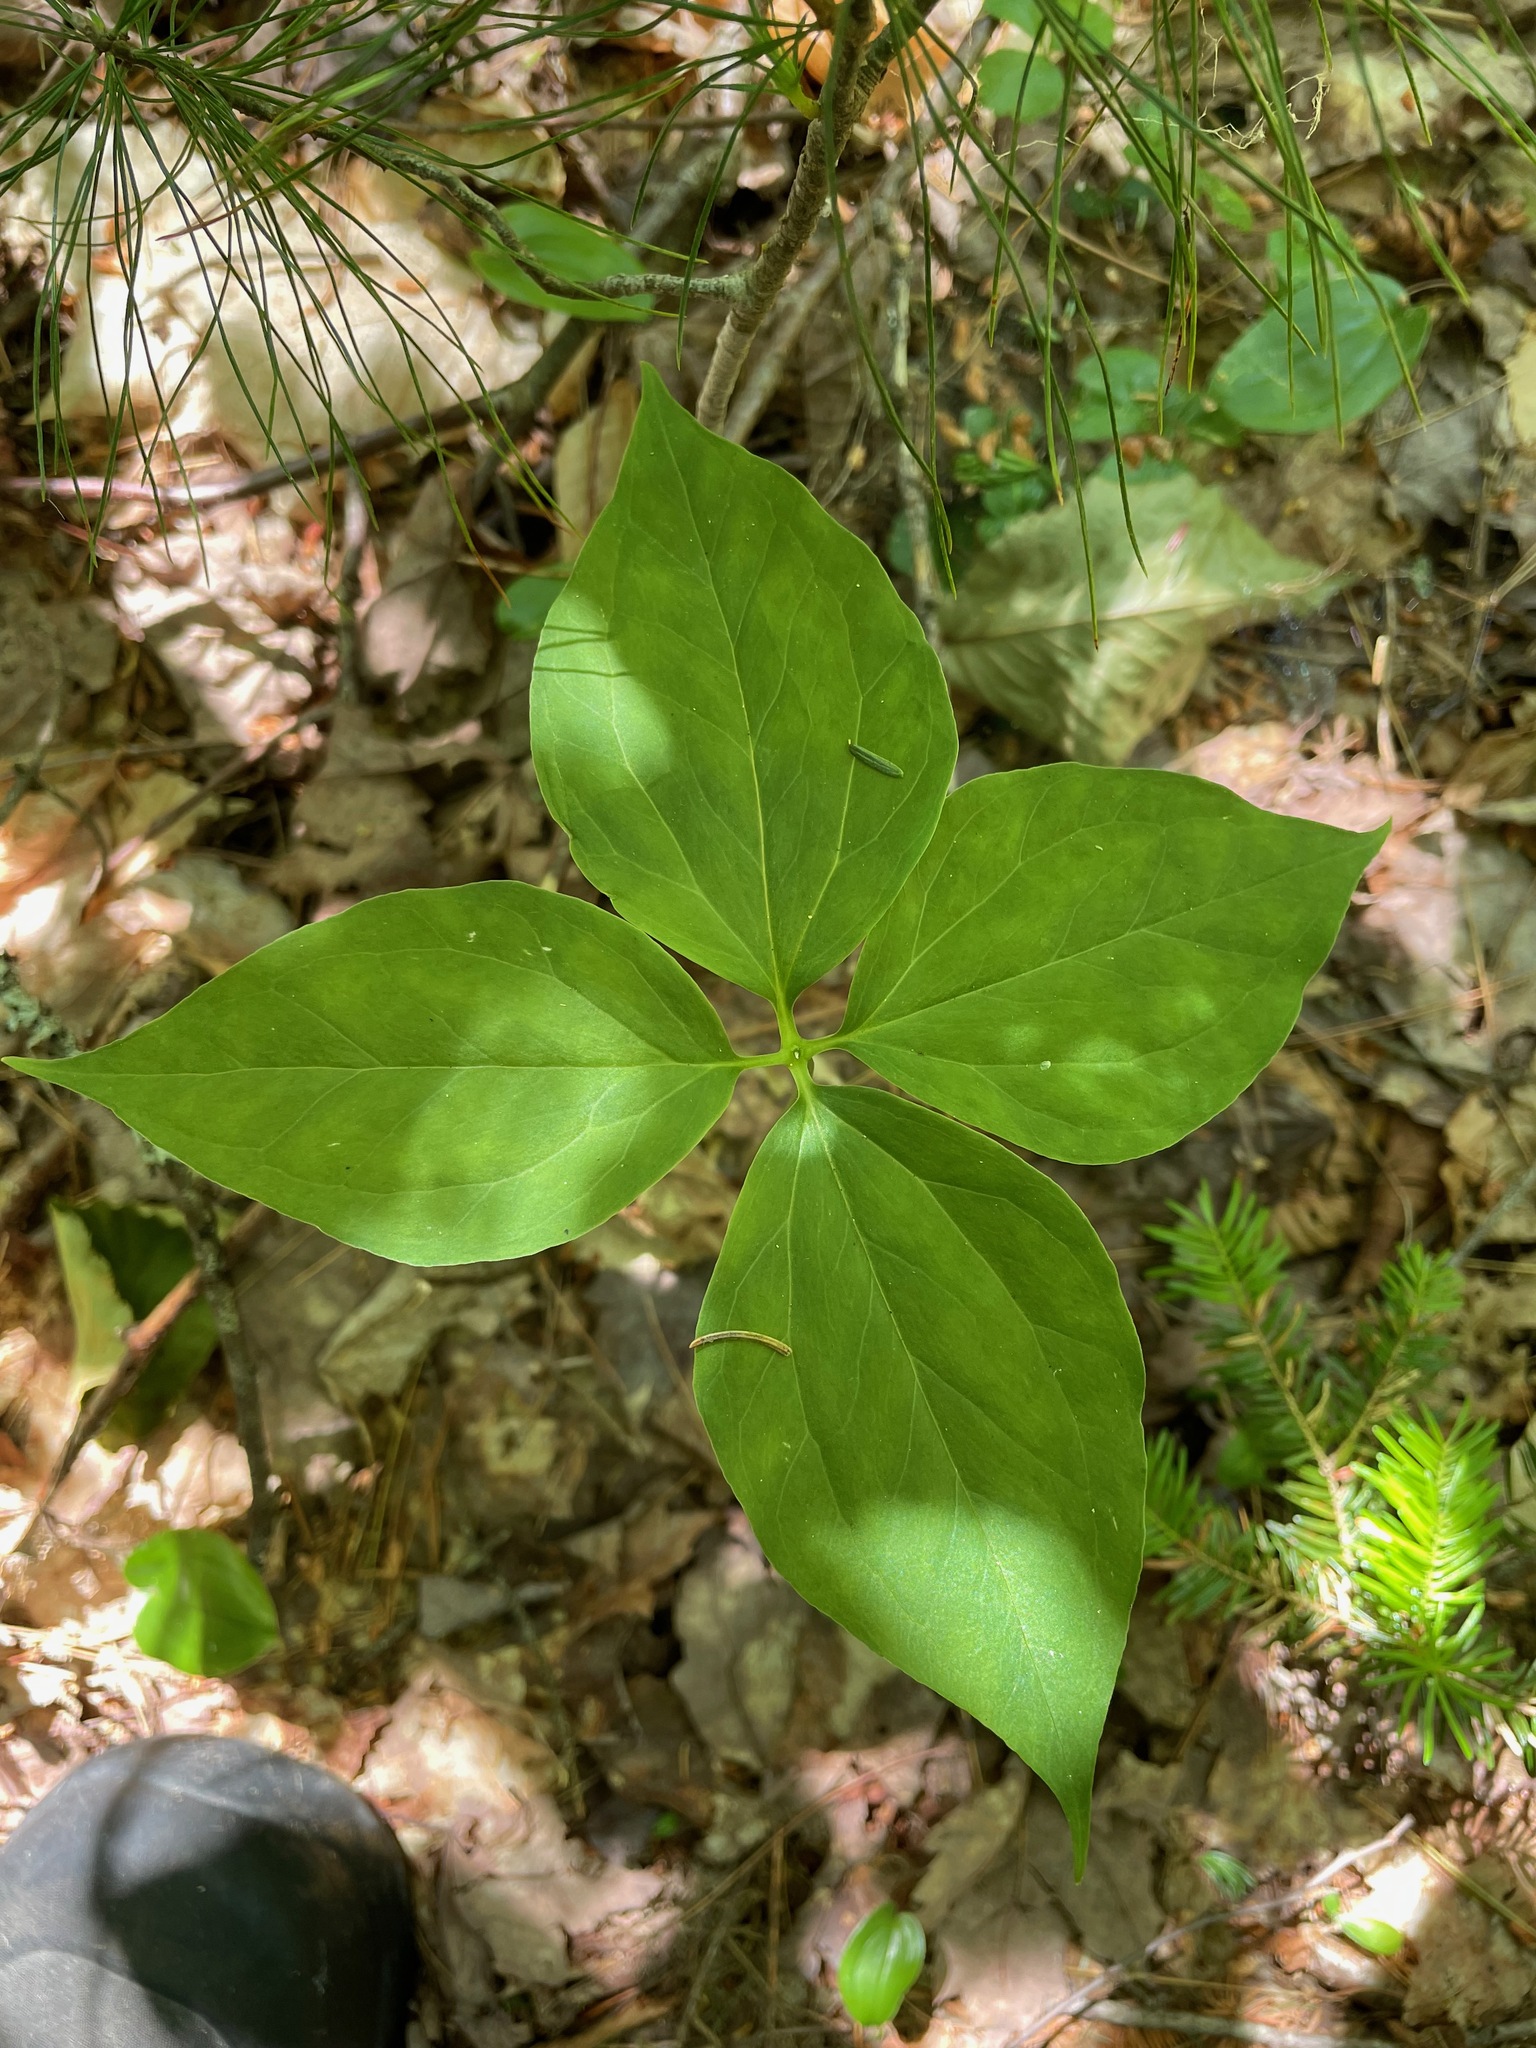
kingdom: Plantae
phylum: Tracheophyta
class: Liliopsida
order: Liliales
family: Melanthiaceae
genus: Trillium
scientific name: Trillium undulatum
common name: Paint trillium
